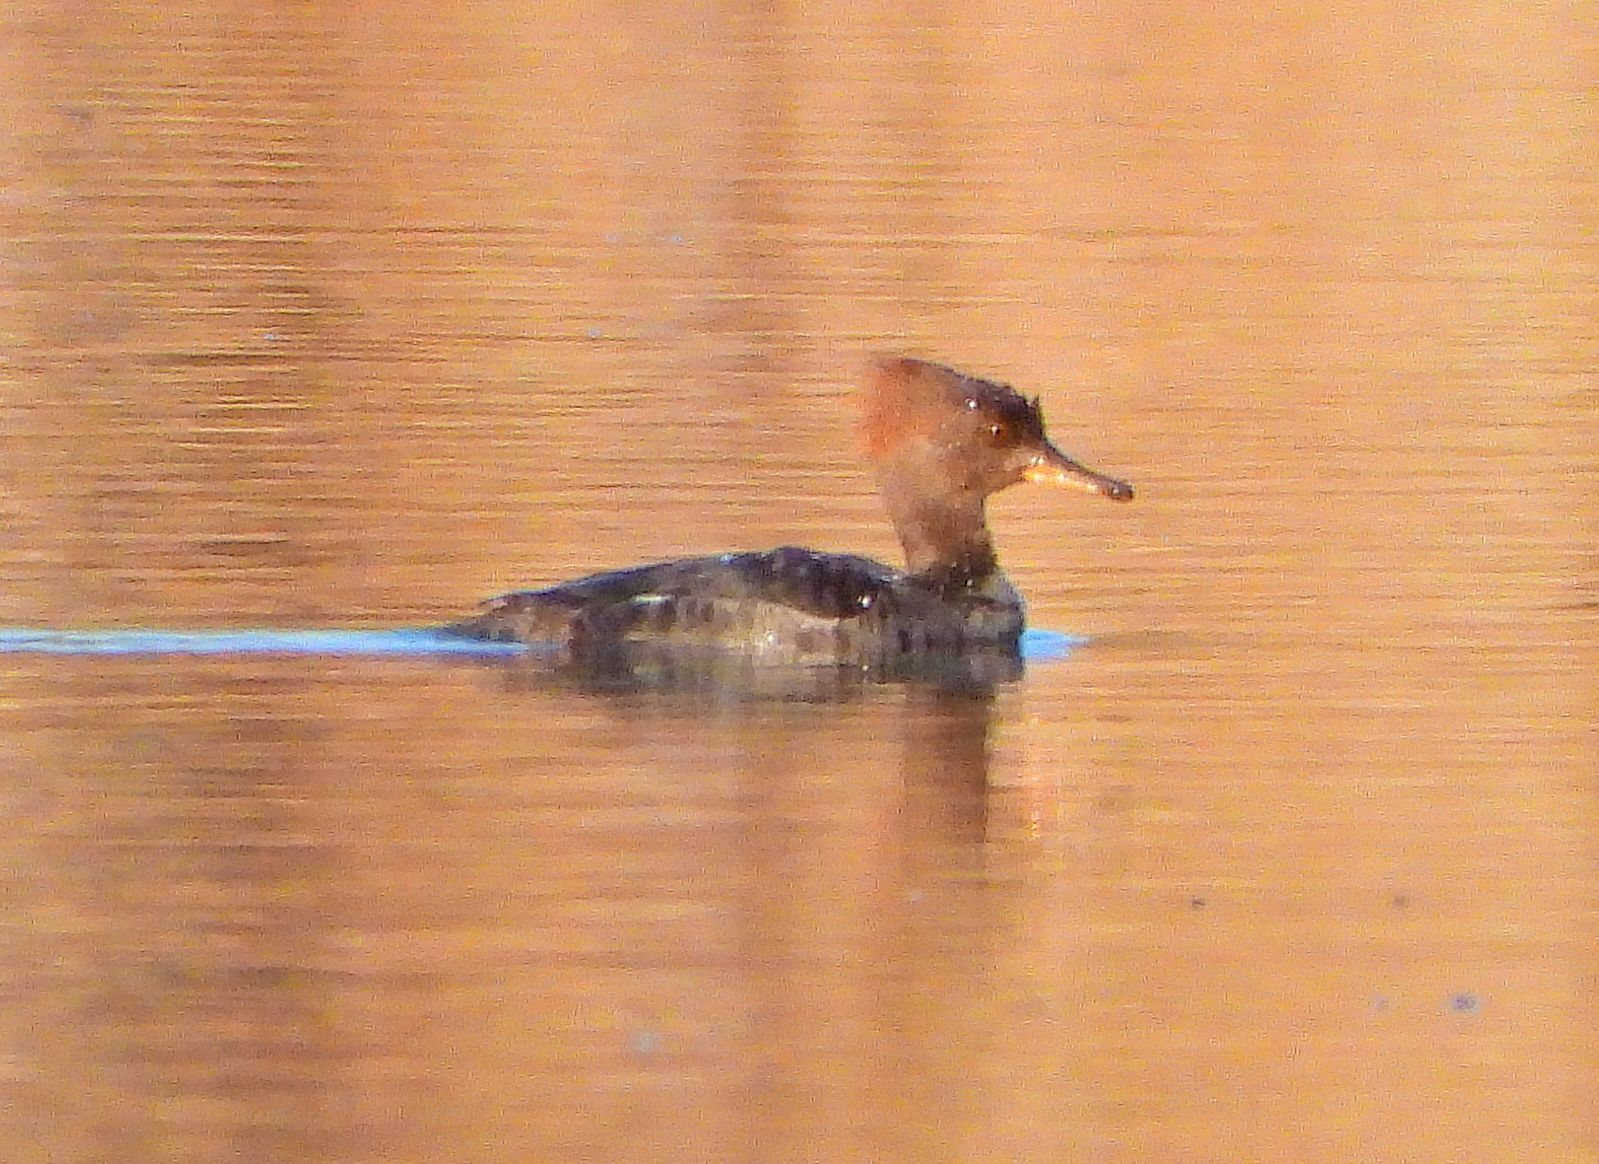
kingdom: Animalia
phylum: Chordata
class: Aves
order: Anseriformes
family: Anatidae
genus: Lophodytes
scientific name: Lophodytes cucullatus
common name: Hooded merganser
